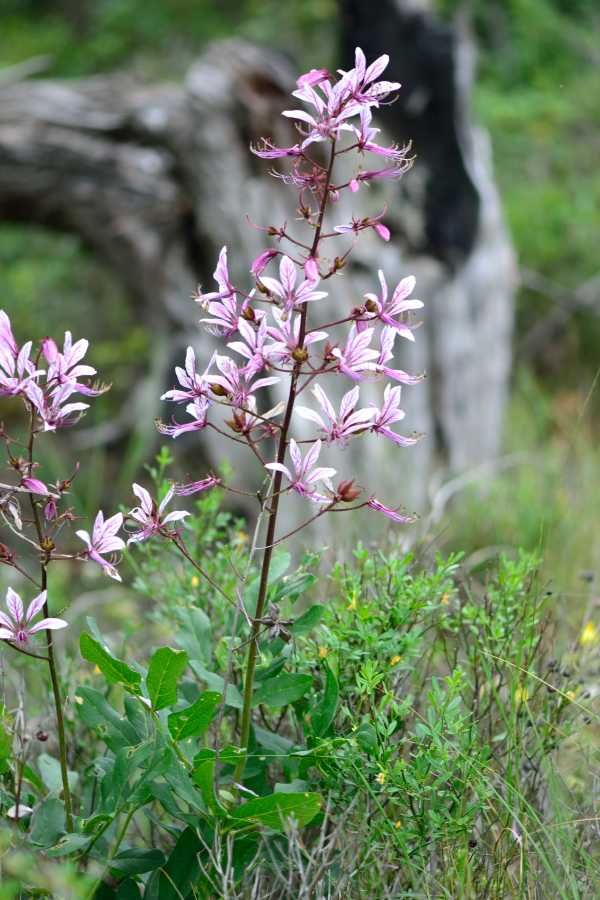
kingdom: Plantae
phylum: Tracheophyta
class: Magnoliopsida
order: Sapindales
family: Rutaceae
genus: Dictamnus
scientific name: Dictamnus albus
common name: Gasplant
